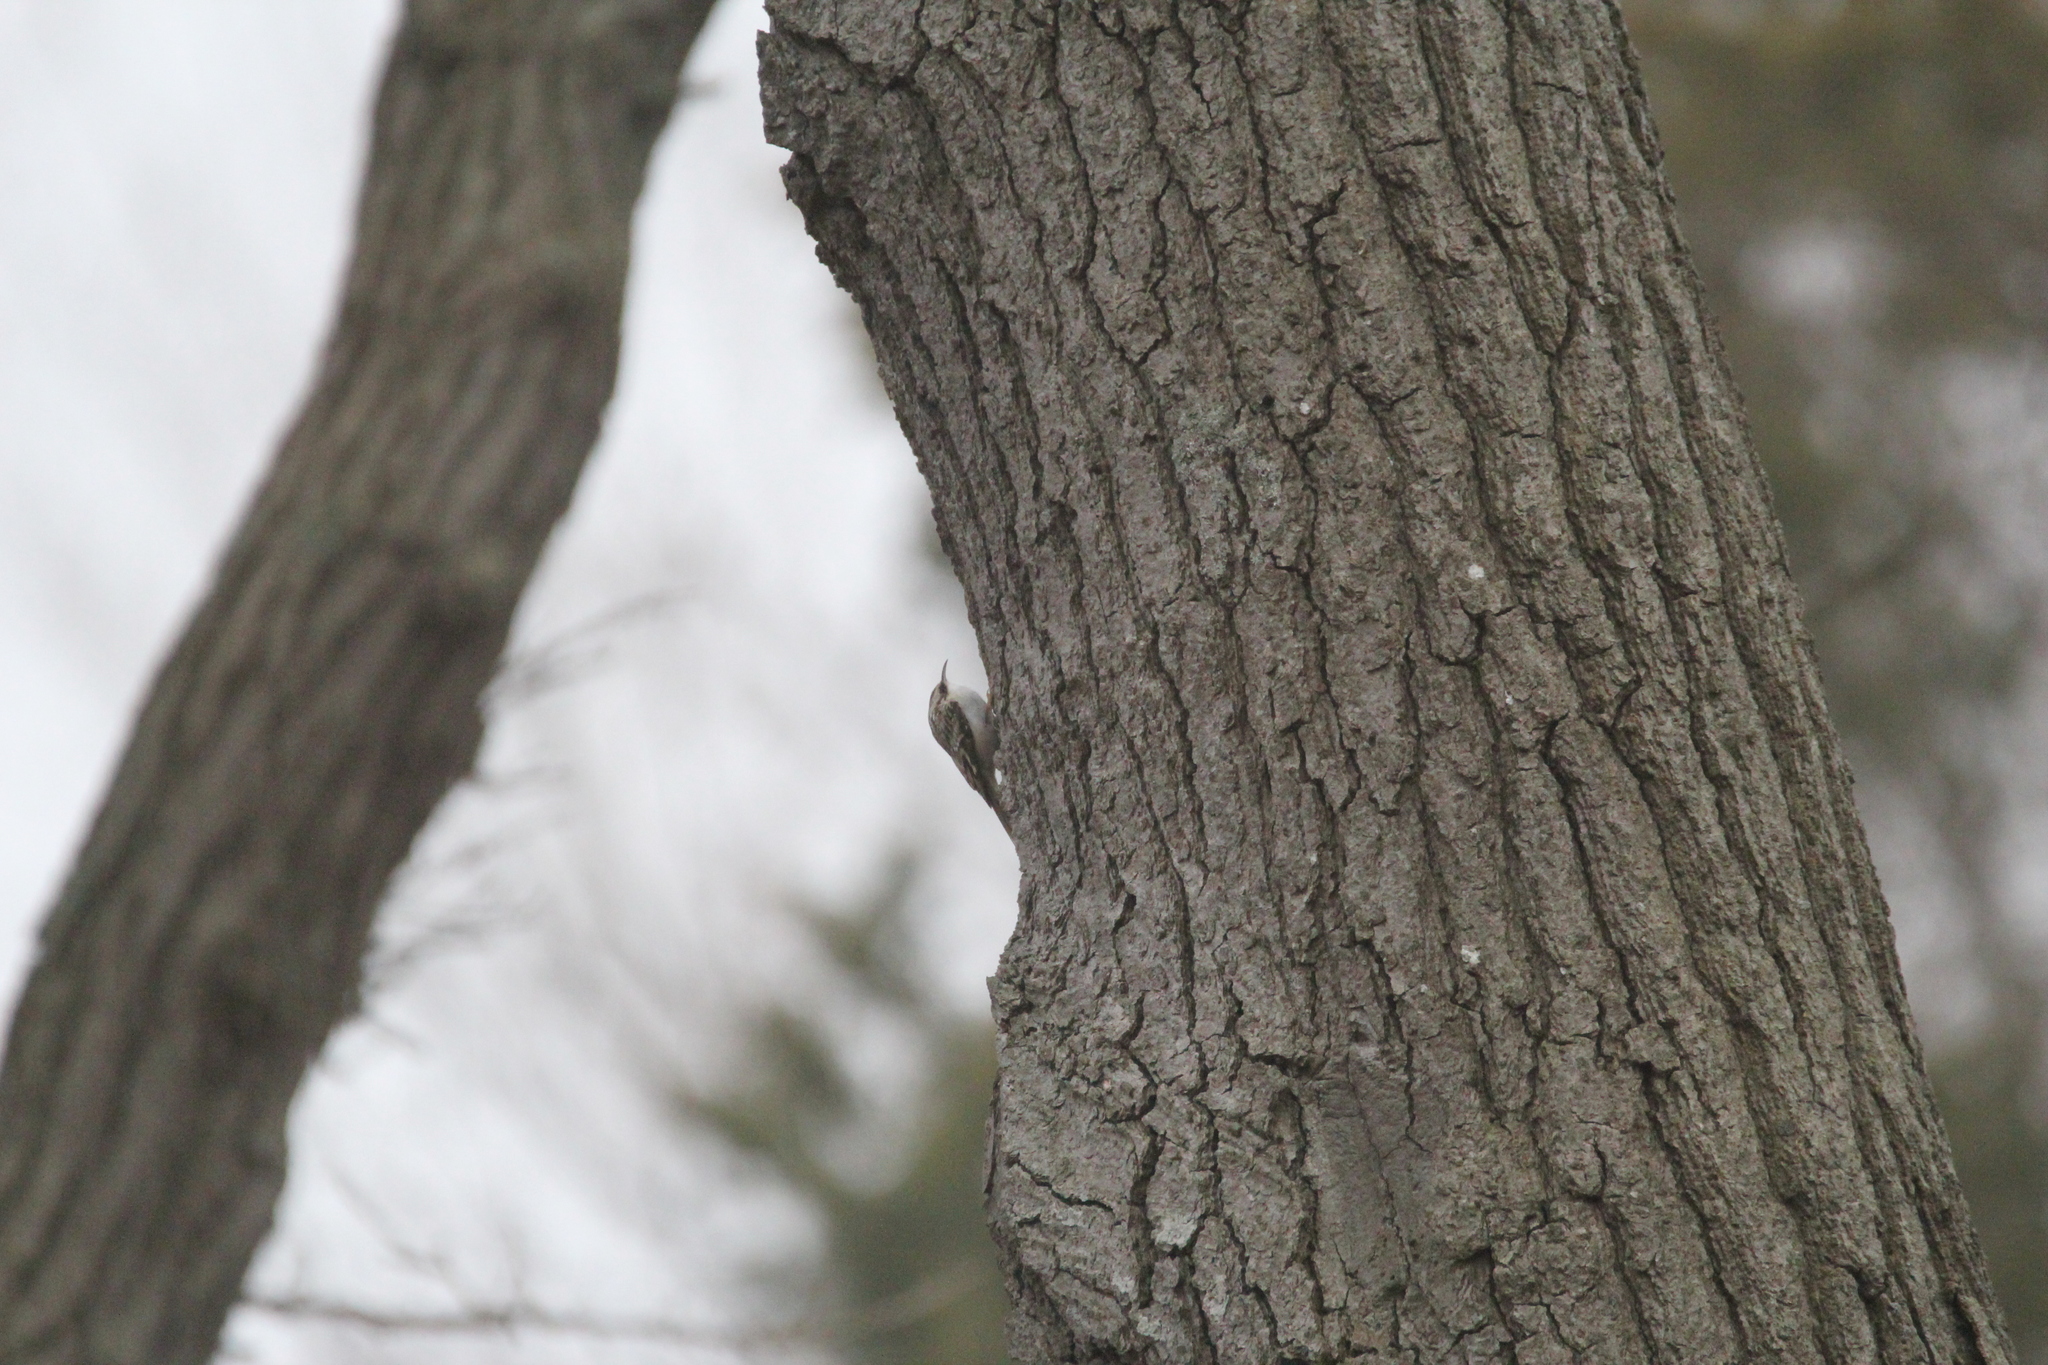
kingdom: Animalia
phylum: Chordata
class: Aves
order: Passeriformes
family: Certhiidae
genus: Certhia
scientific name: Certhia americana
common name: Brown creeper
